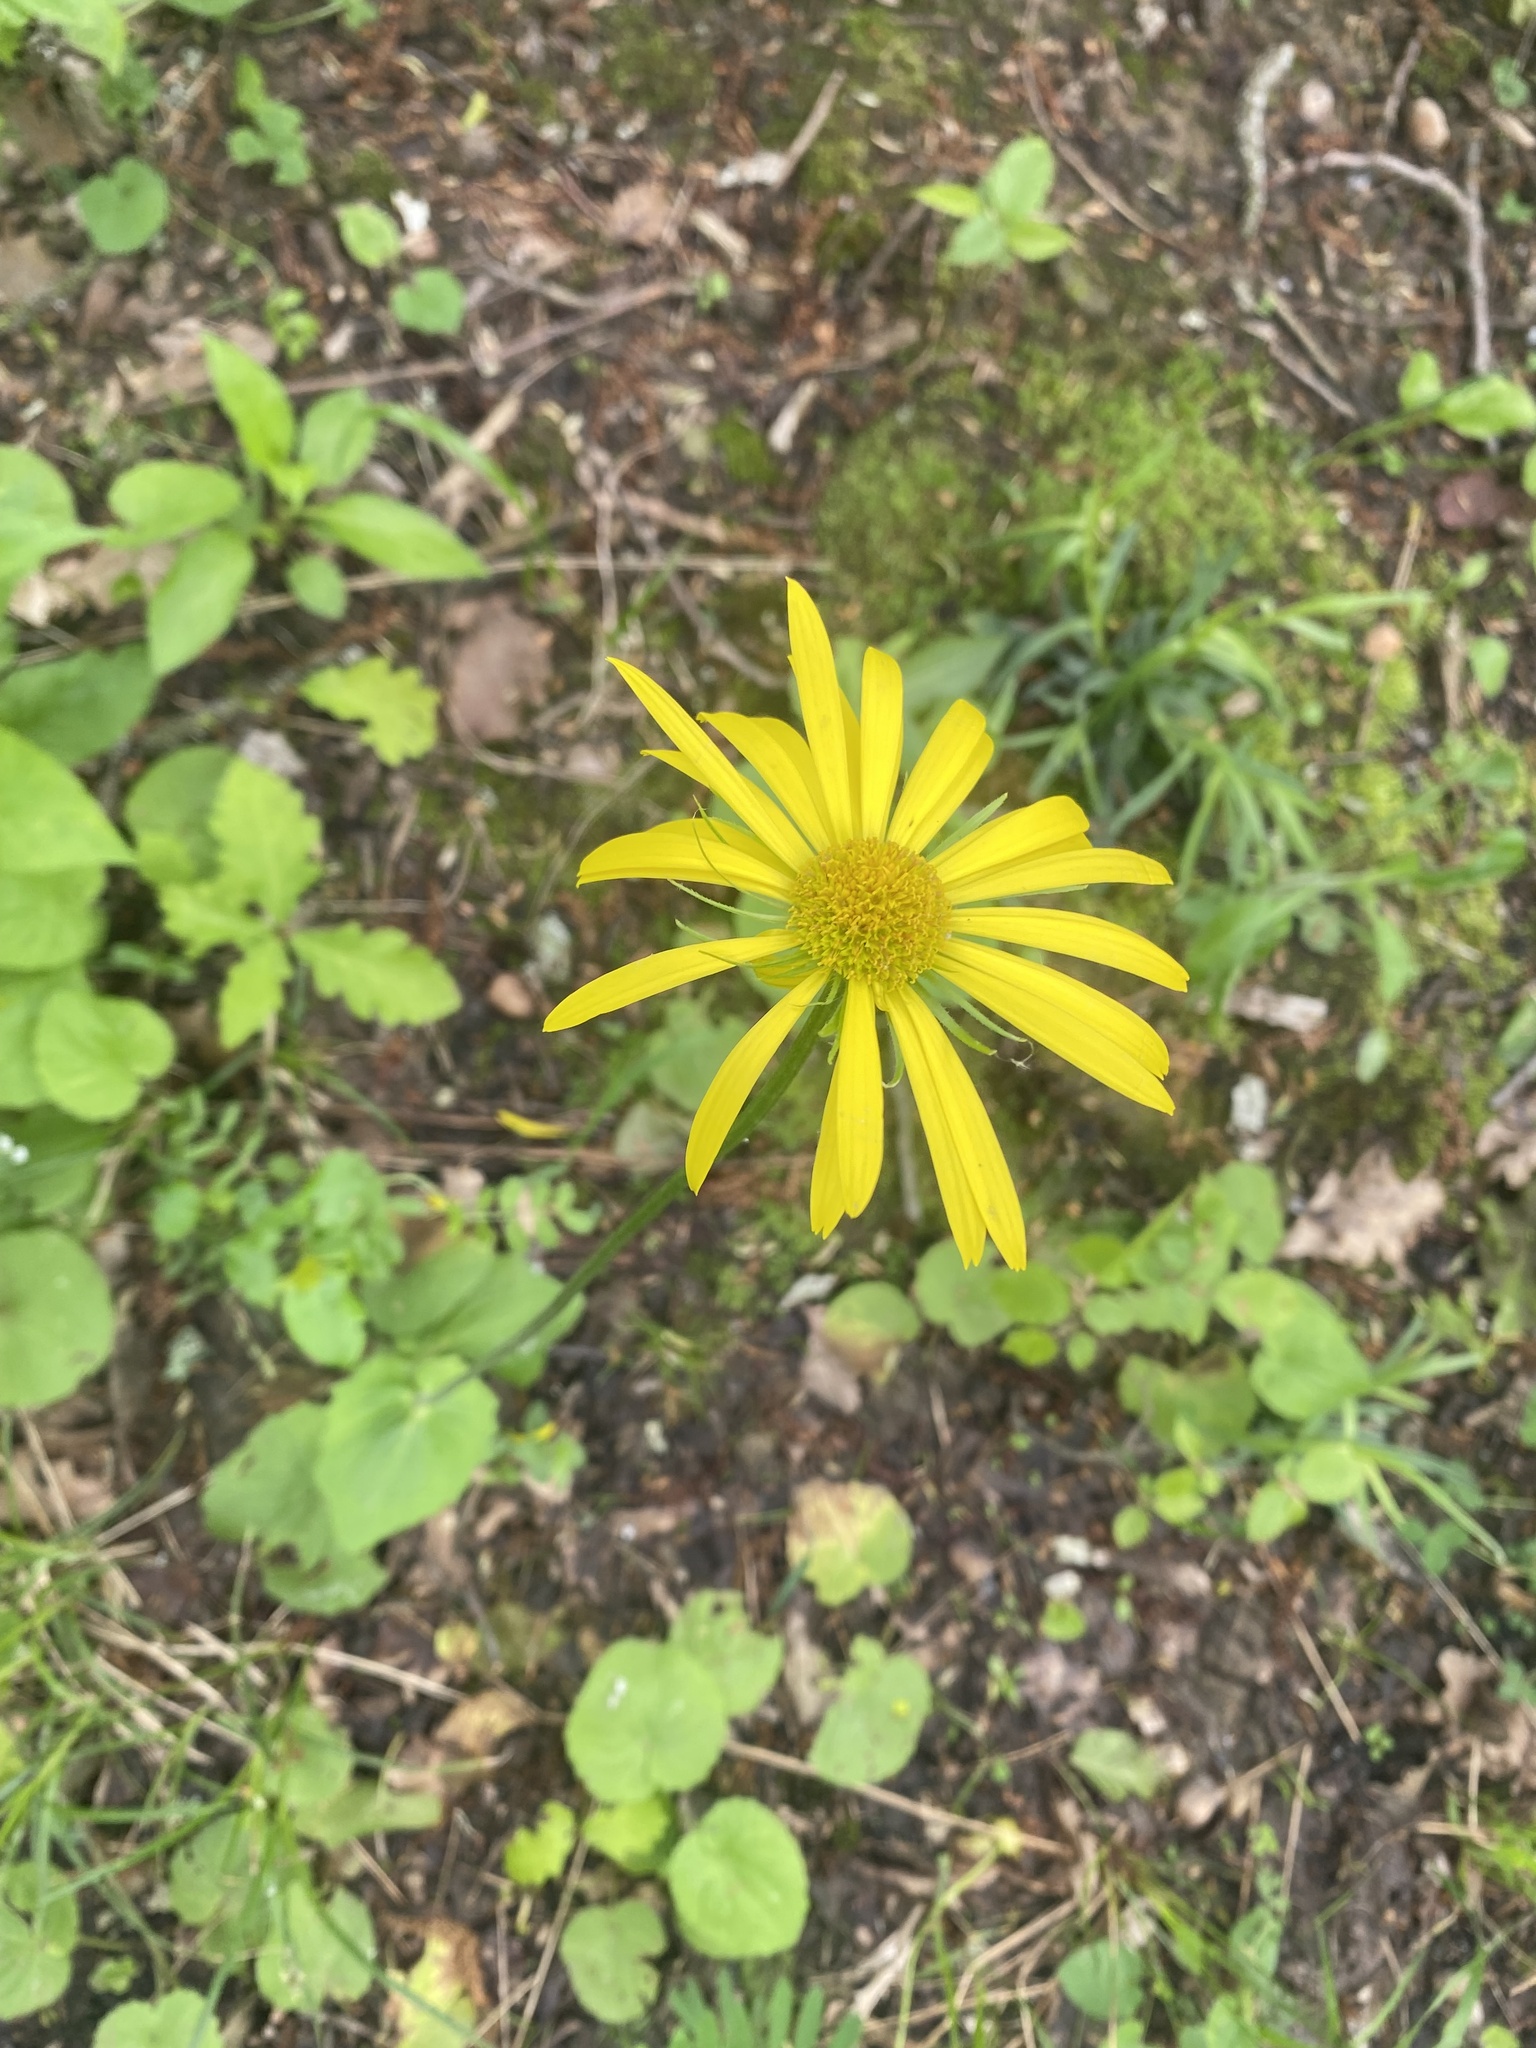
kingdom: Plantae
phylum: Tracheophyta
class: Magnoliopsida
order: Asterales
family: Asteraceae
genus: Doronicum
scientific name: Doronicum
